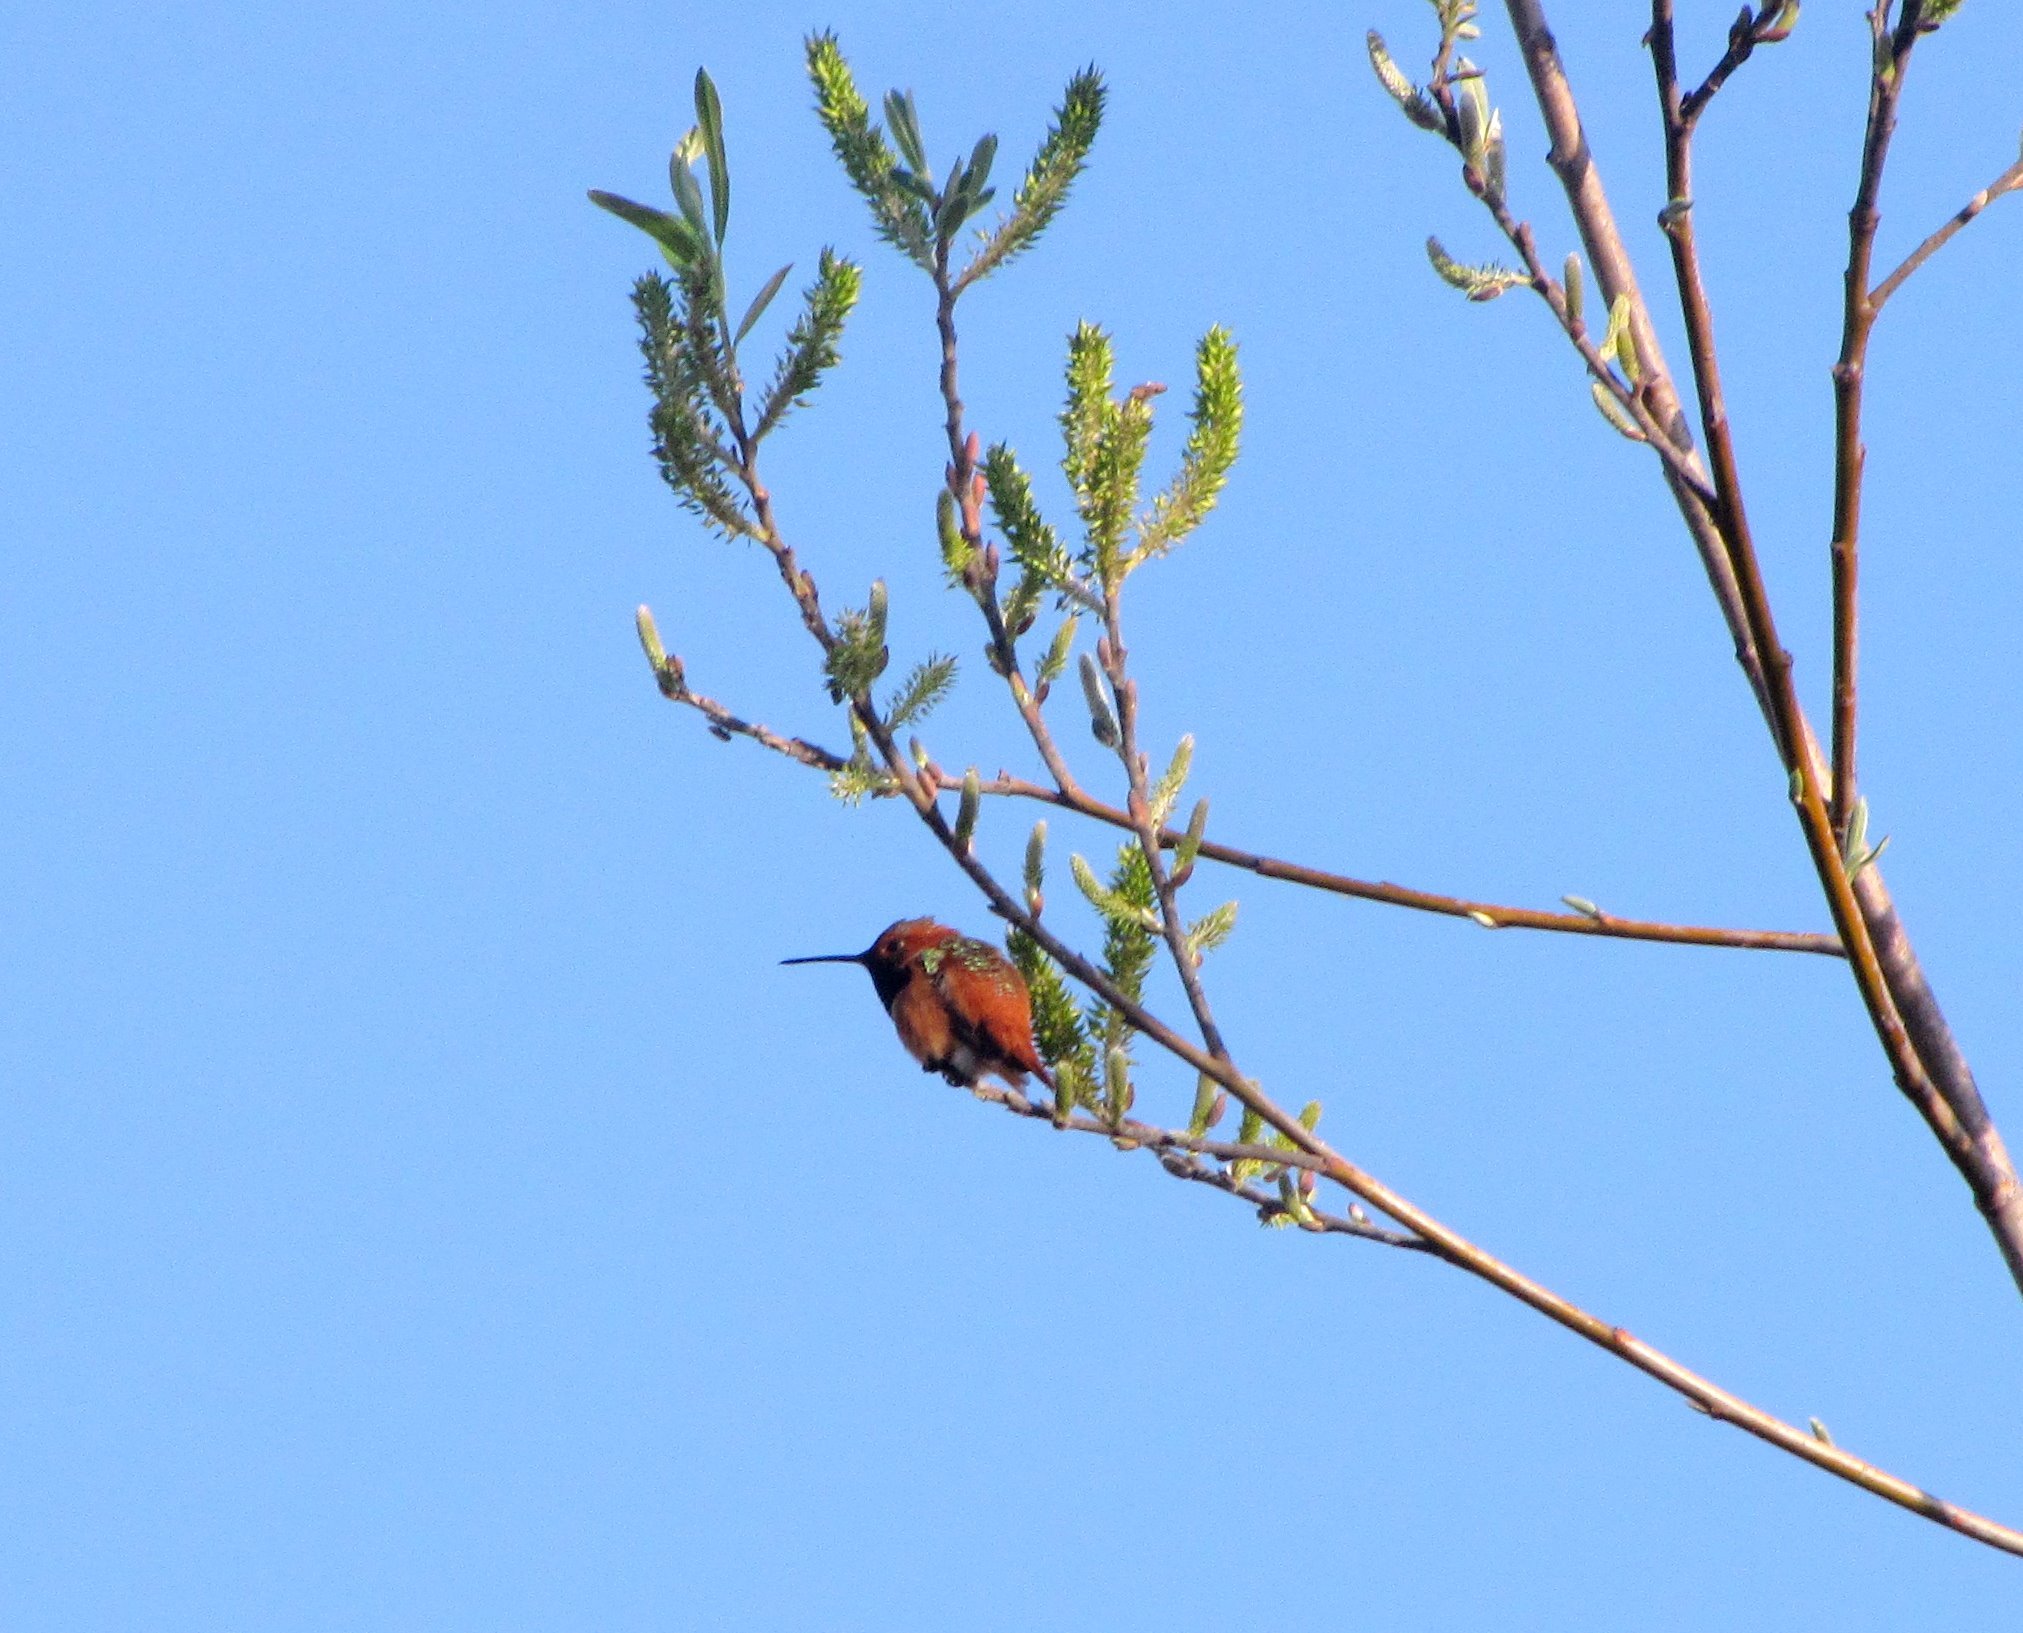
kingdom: Animalia
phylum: Chordata
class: Aves
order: Apodiformes
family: Trochilidae
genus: Selasphorus
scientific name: Selasphorus sasin
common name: Allen's hummingbird
